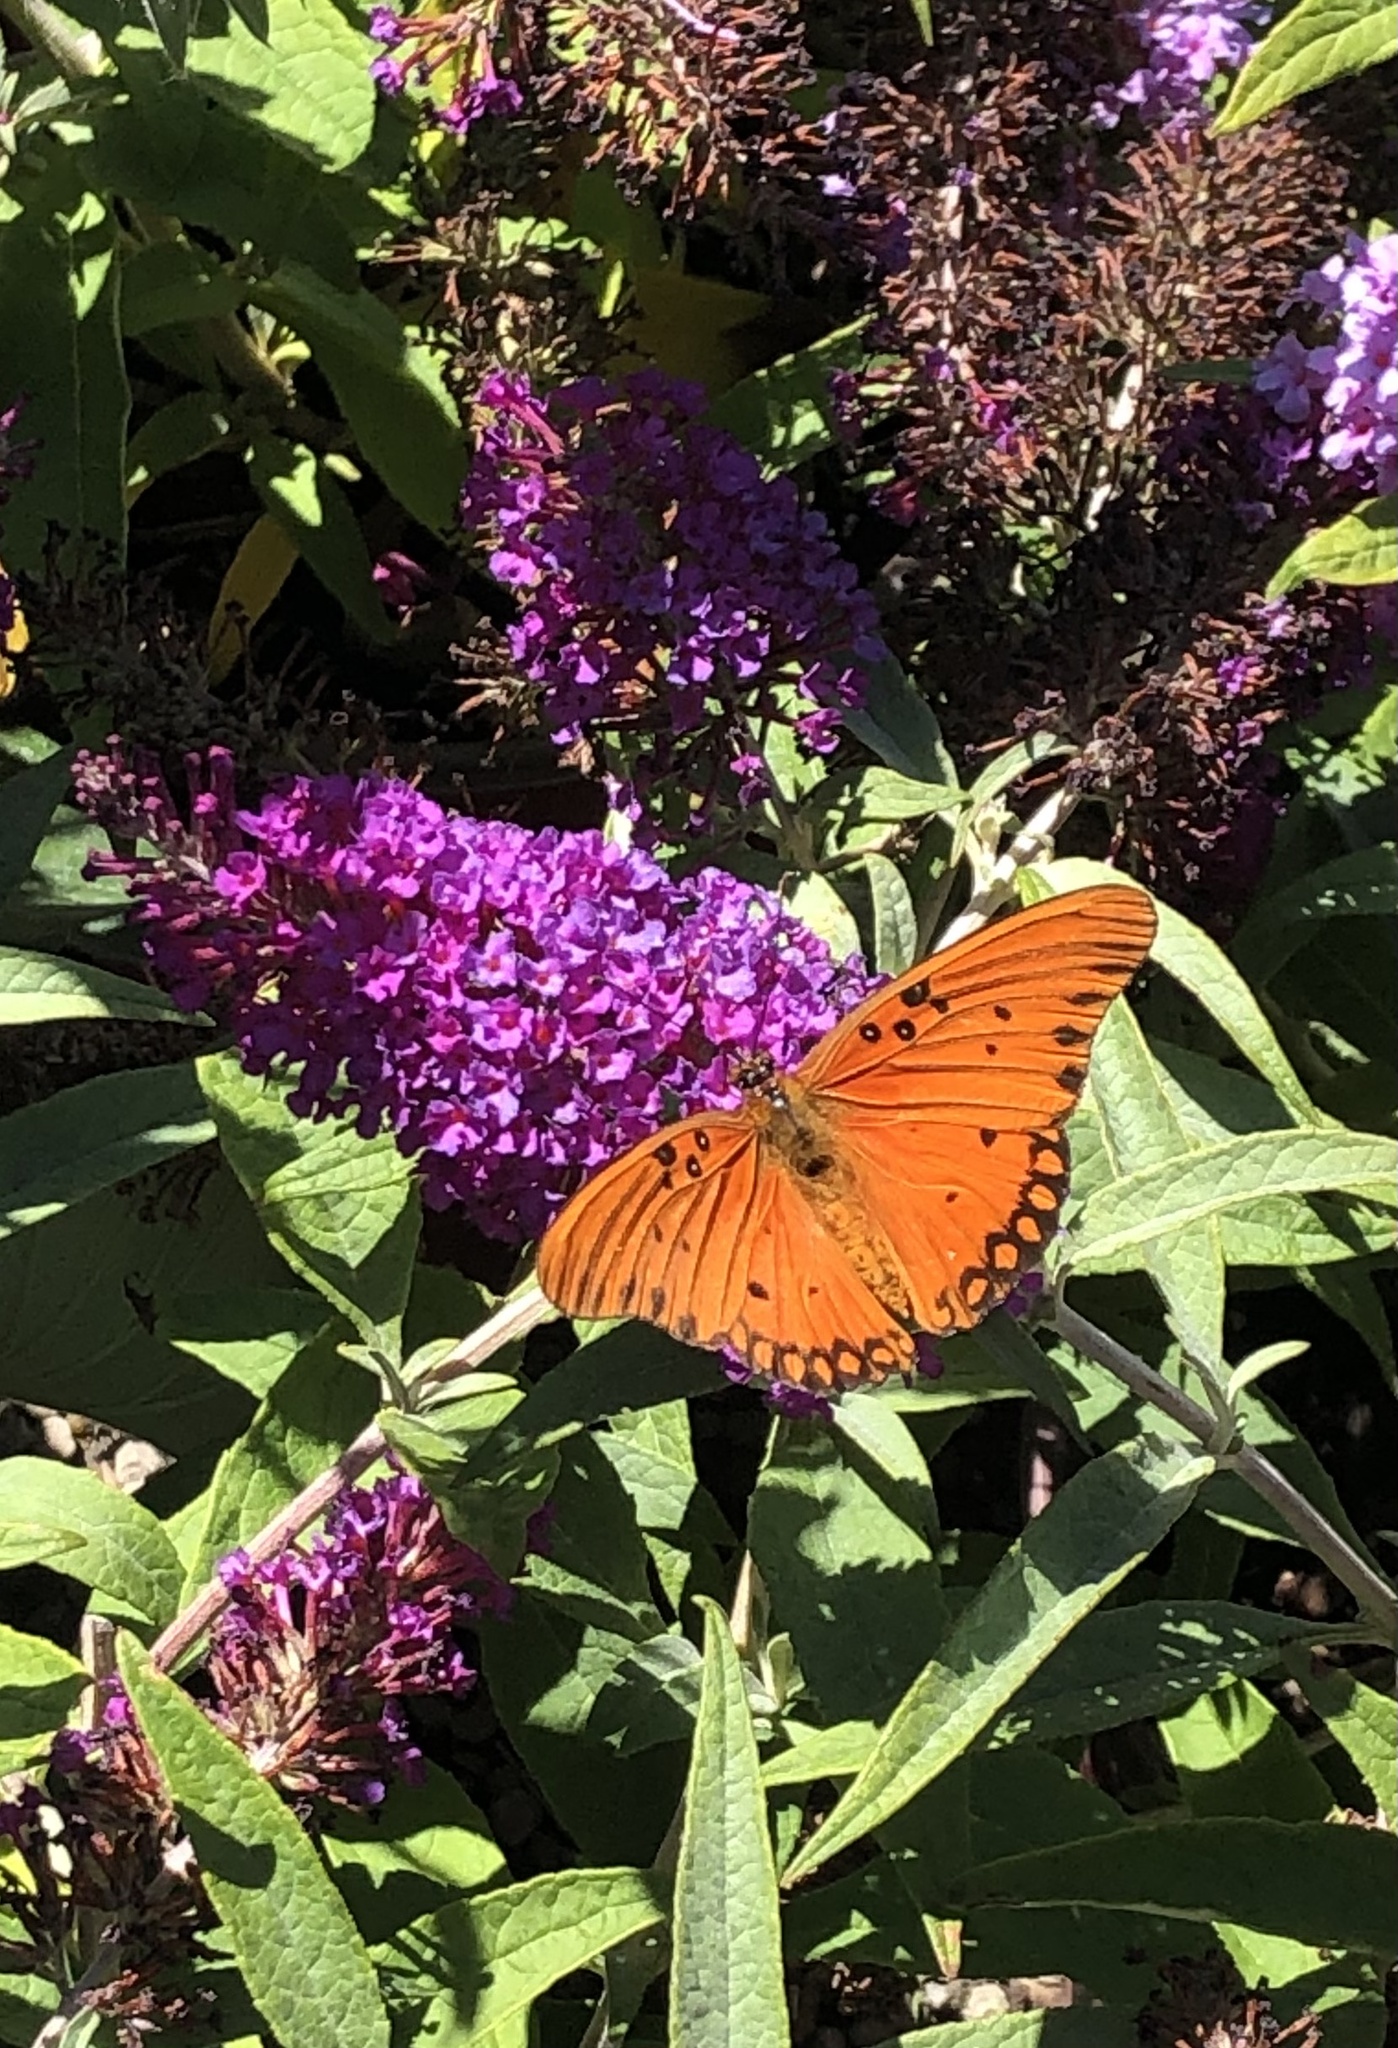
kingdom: Animalia
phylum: Arthropoda
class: Insecta
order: Lepidoptera
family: Nymphalidae
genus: Dione
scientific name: Dione vanillae
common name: Gulf fritillary
